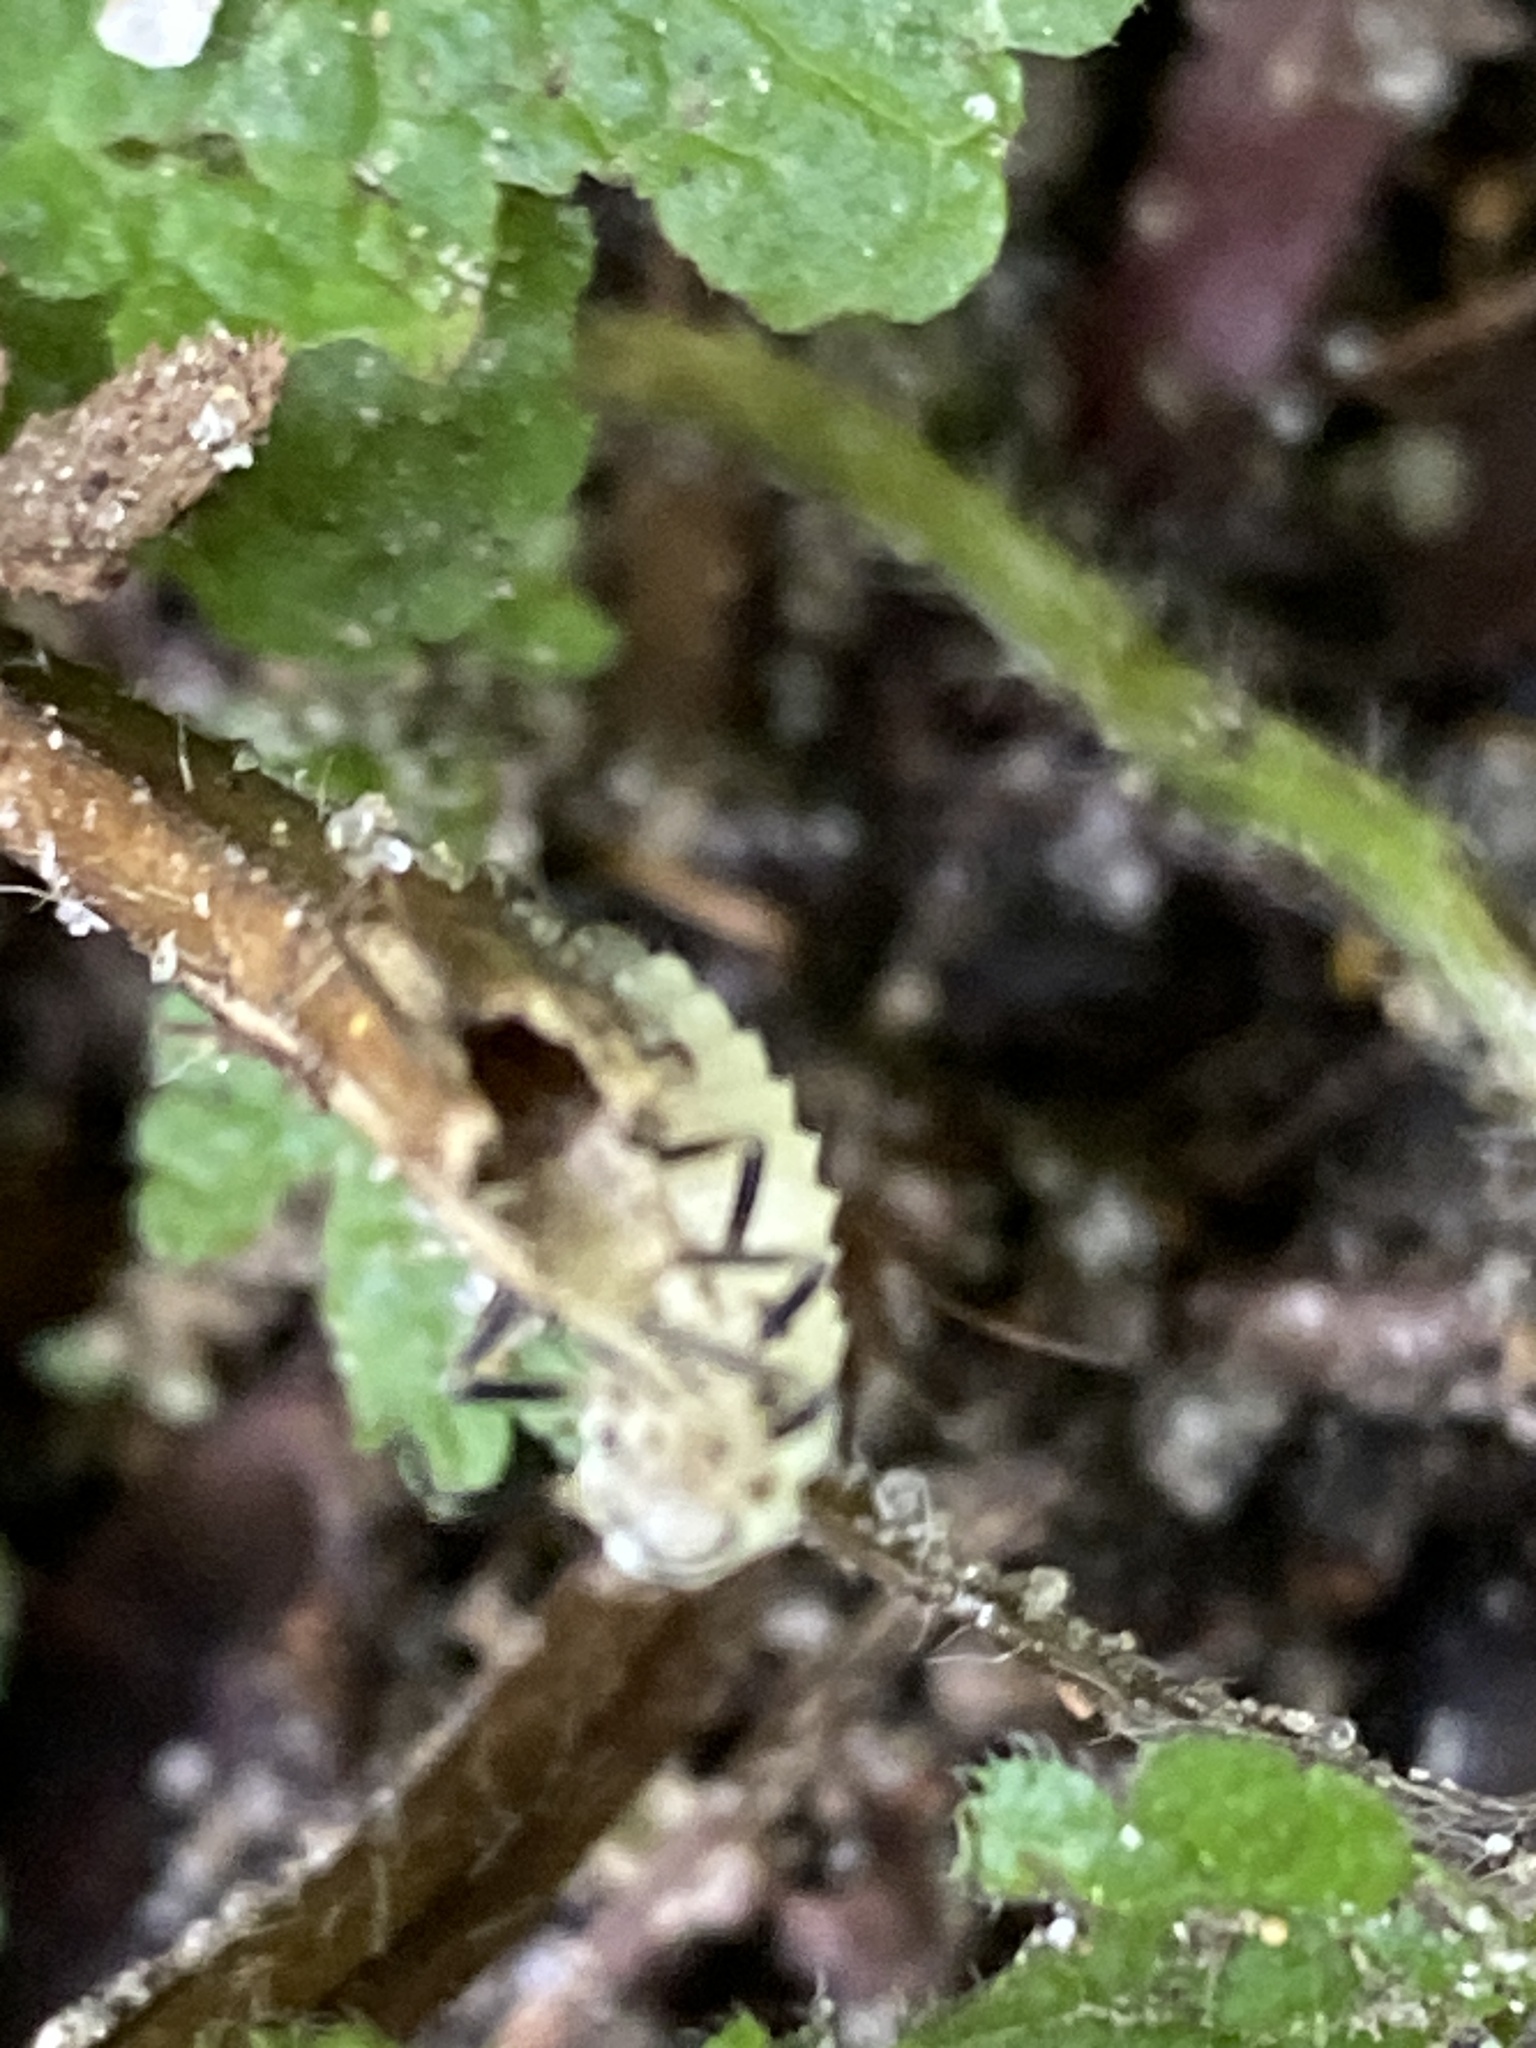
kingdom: Animalia
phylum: Arthropoda
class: Insecta
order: Coleoptera
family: Coccinellidae
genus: Calvia
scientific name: Calvia decemguttata
